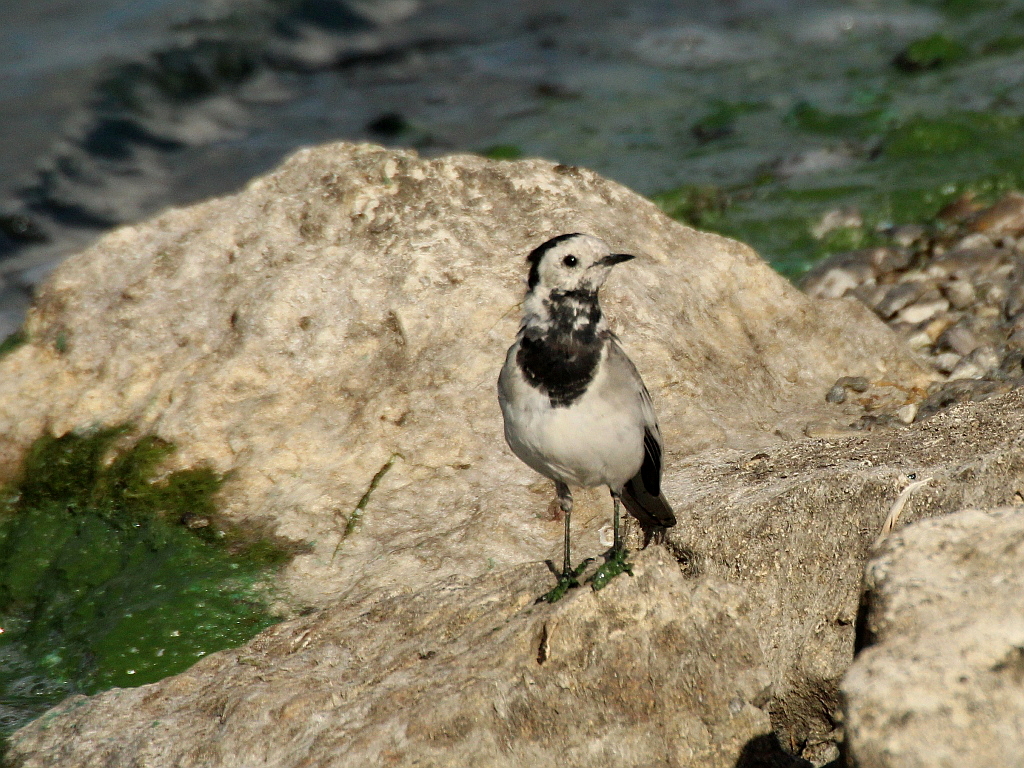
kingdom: Animalia
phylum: Chordata
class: Aves
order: Passeriformes
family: Motacillidae
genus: Motacilla
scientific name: Motacilla alba
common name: White wagtail
